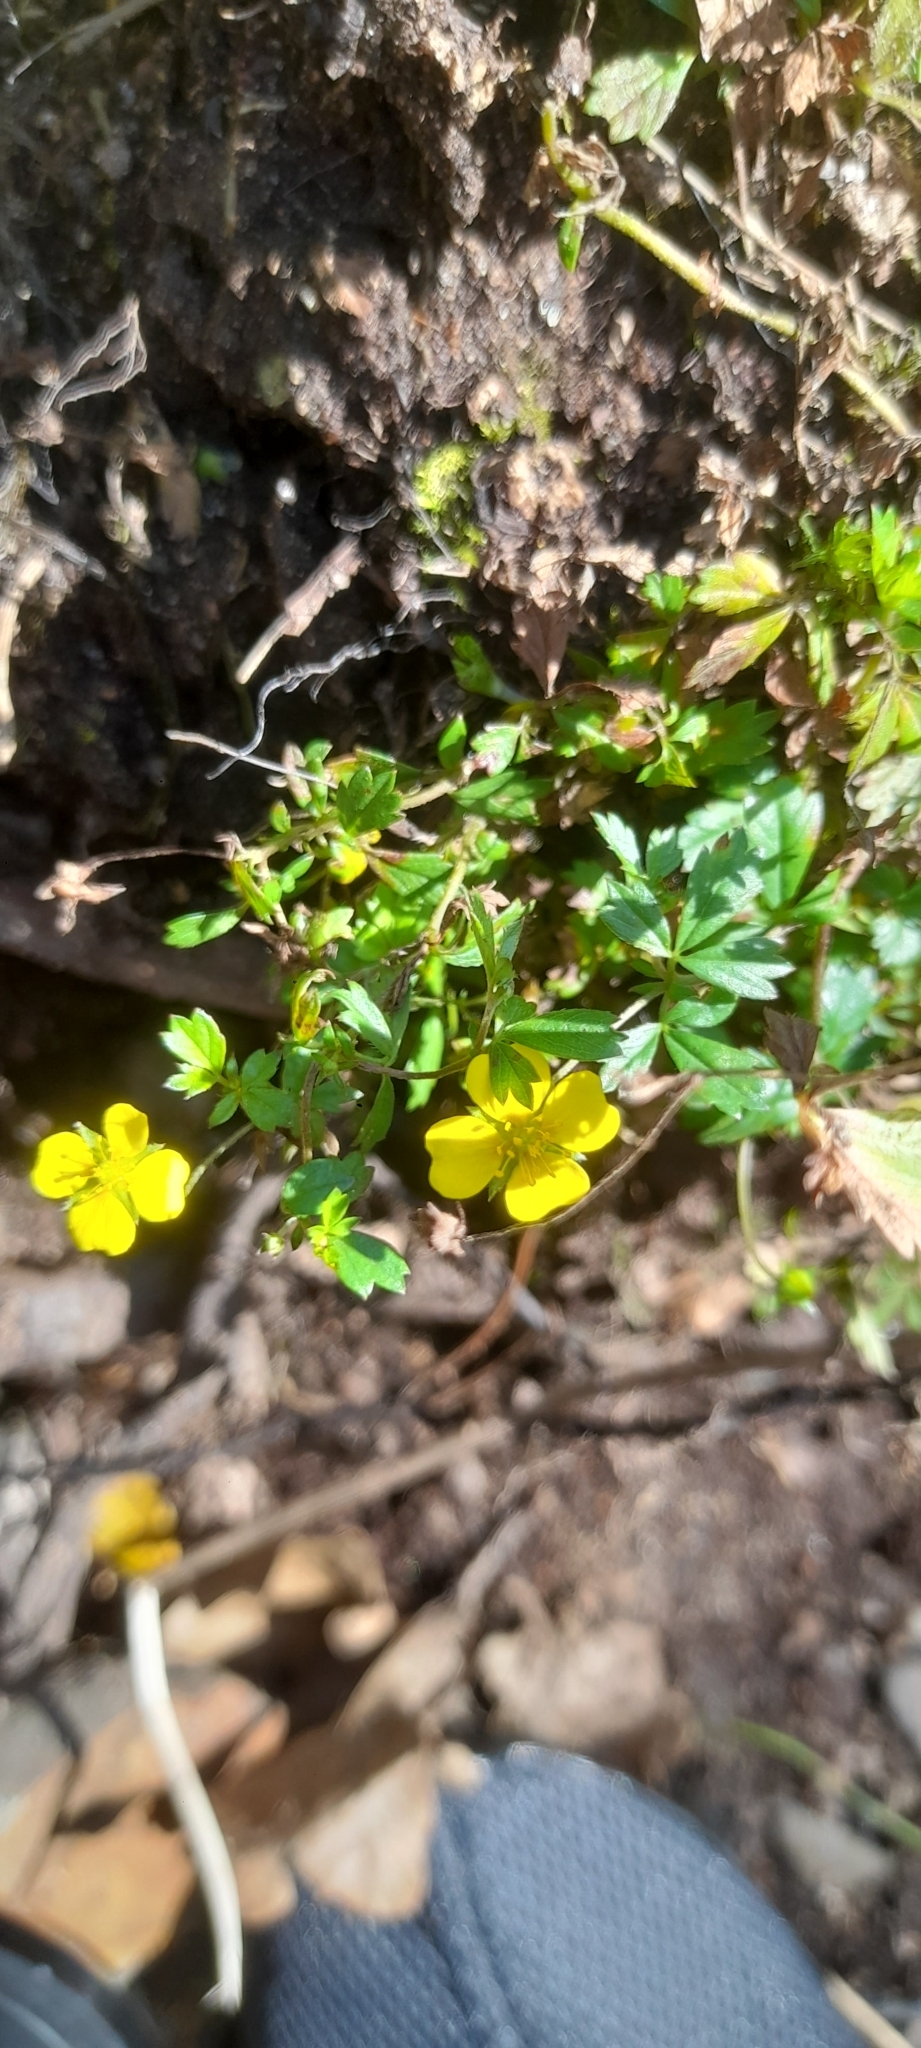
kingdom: Plantae
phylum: Tracheophyta
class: Magnoliopsida
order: Rosales
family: Rosaceae
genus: Potentilla
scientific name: Potentilla erecta
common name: Tormentil
